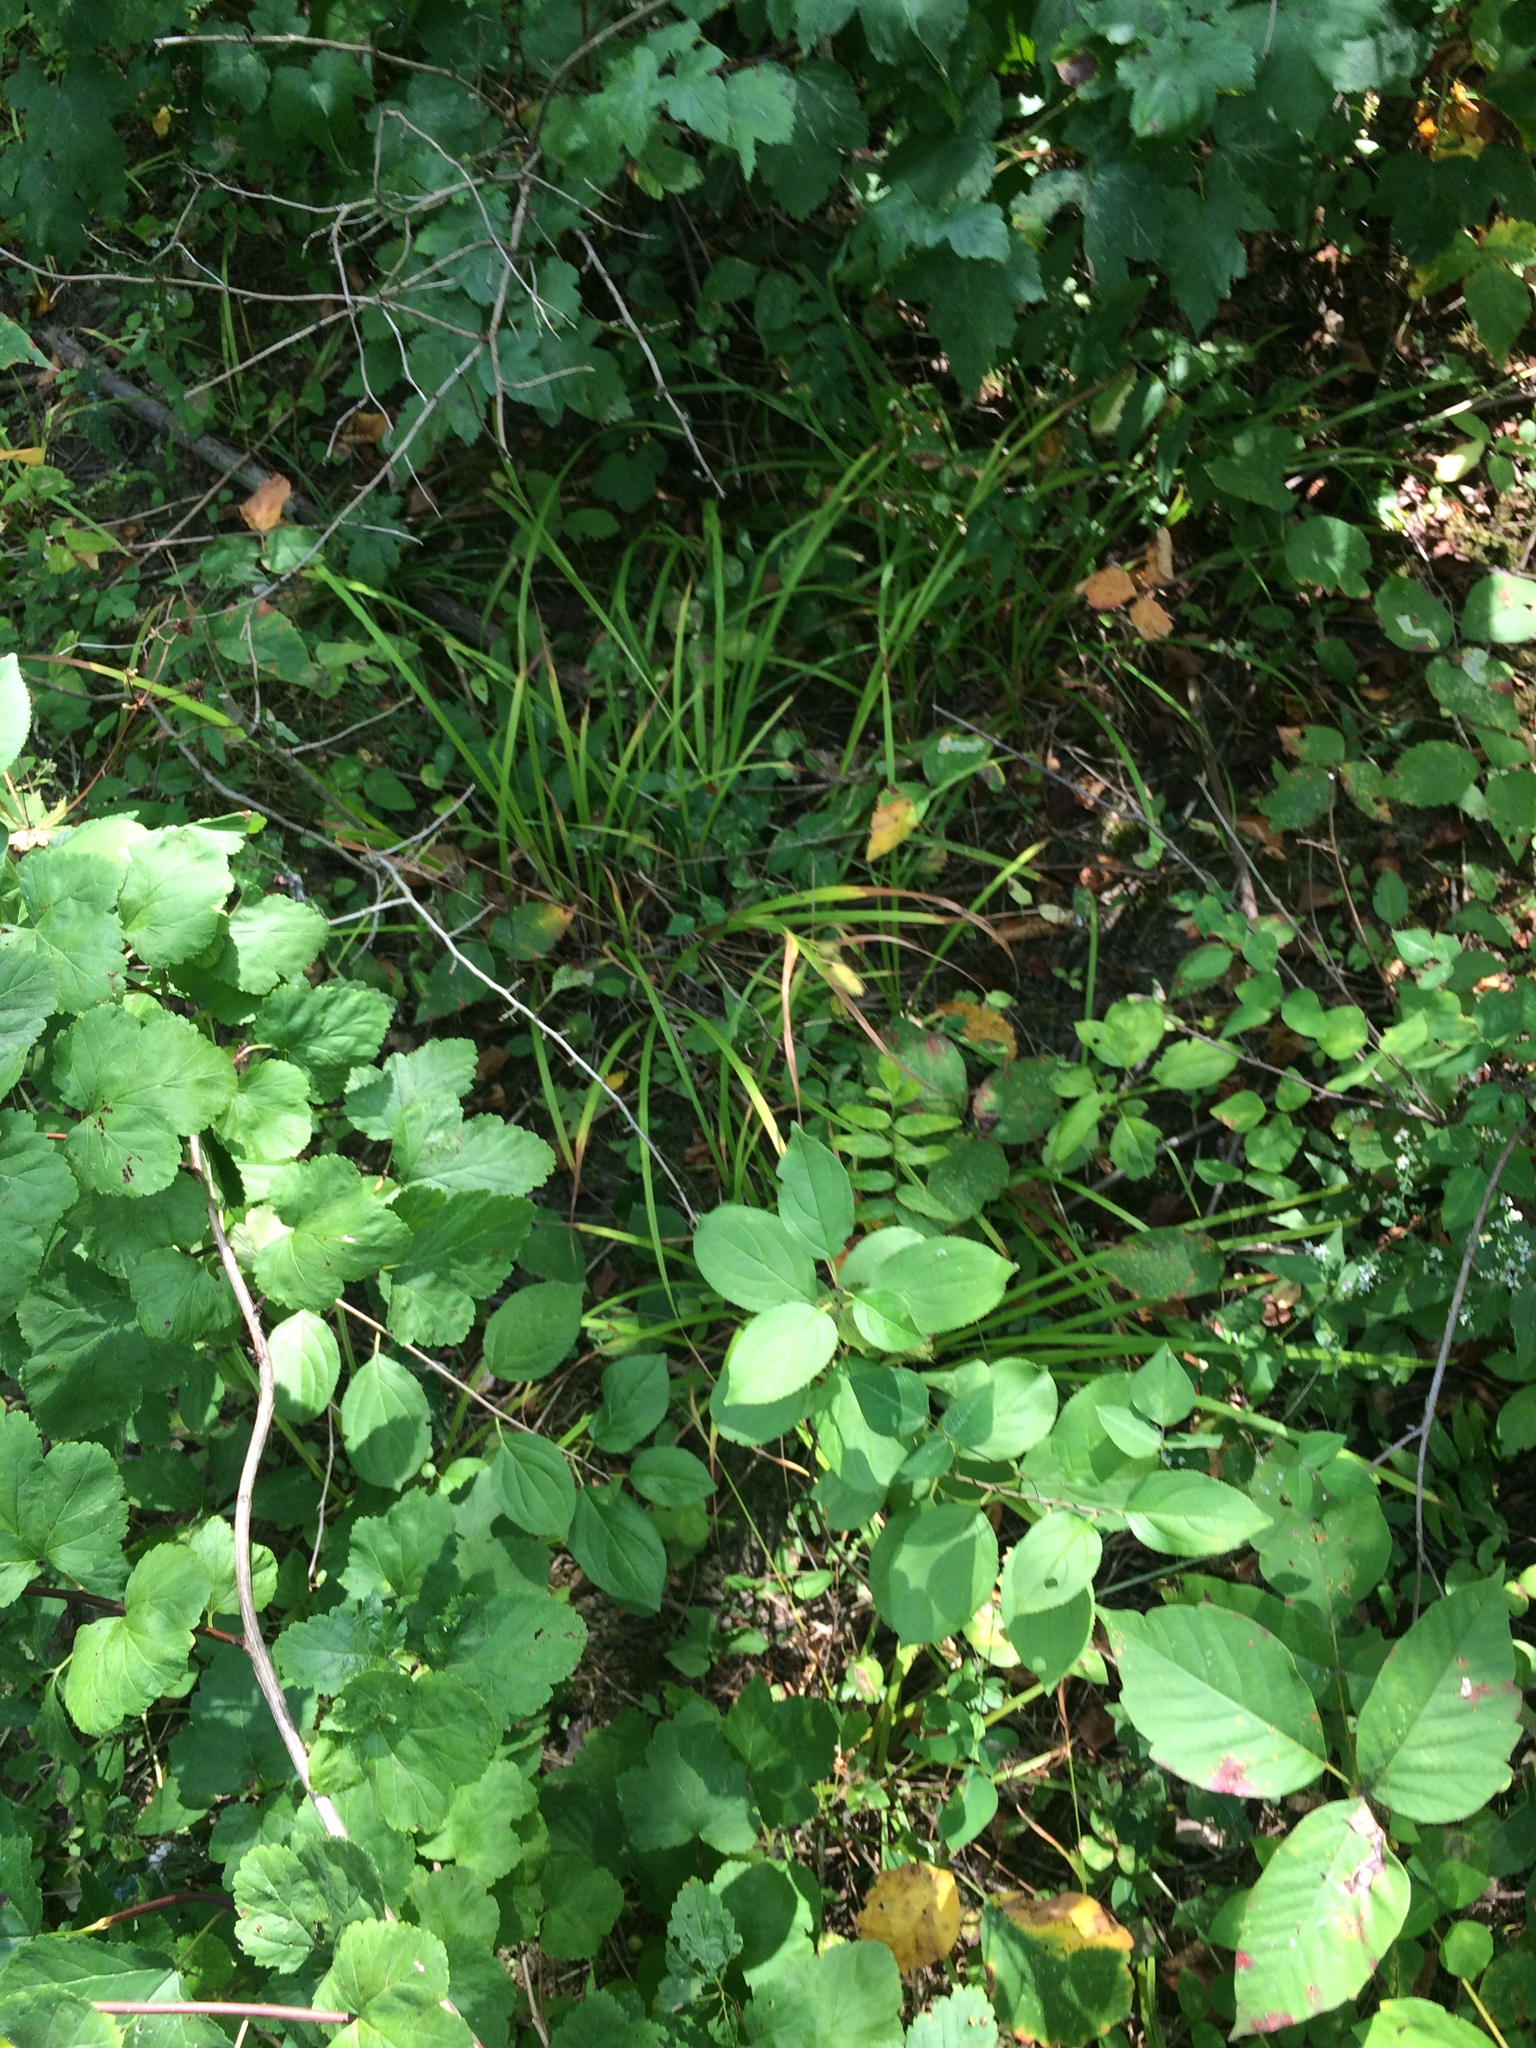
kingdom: Plantae
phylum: Tracheophyta
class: Liliopsida
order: Poales
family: Cyperaceae
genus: Carex
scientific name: Carex typhina
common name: Cattail sedge
